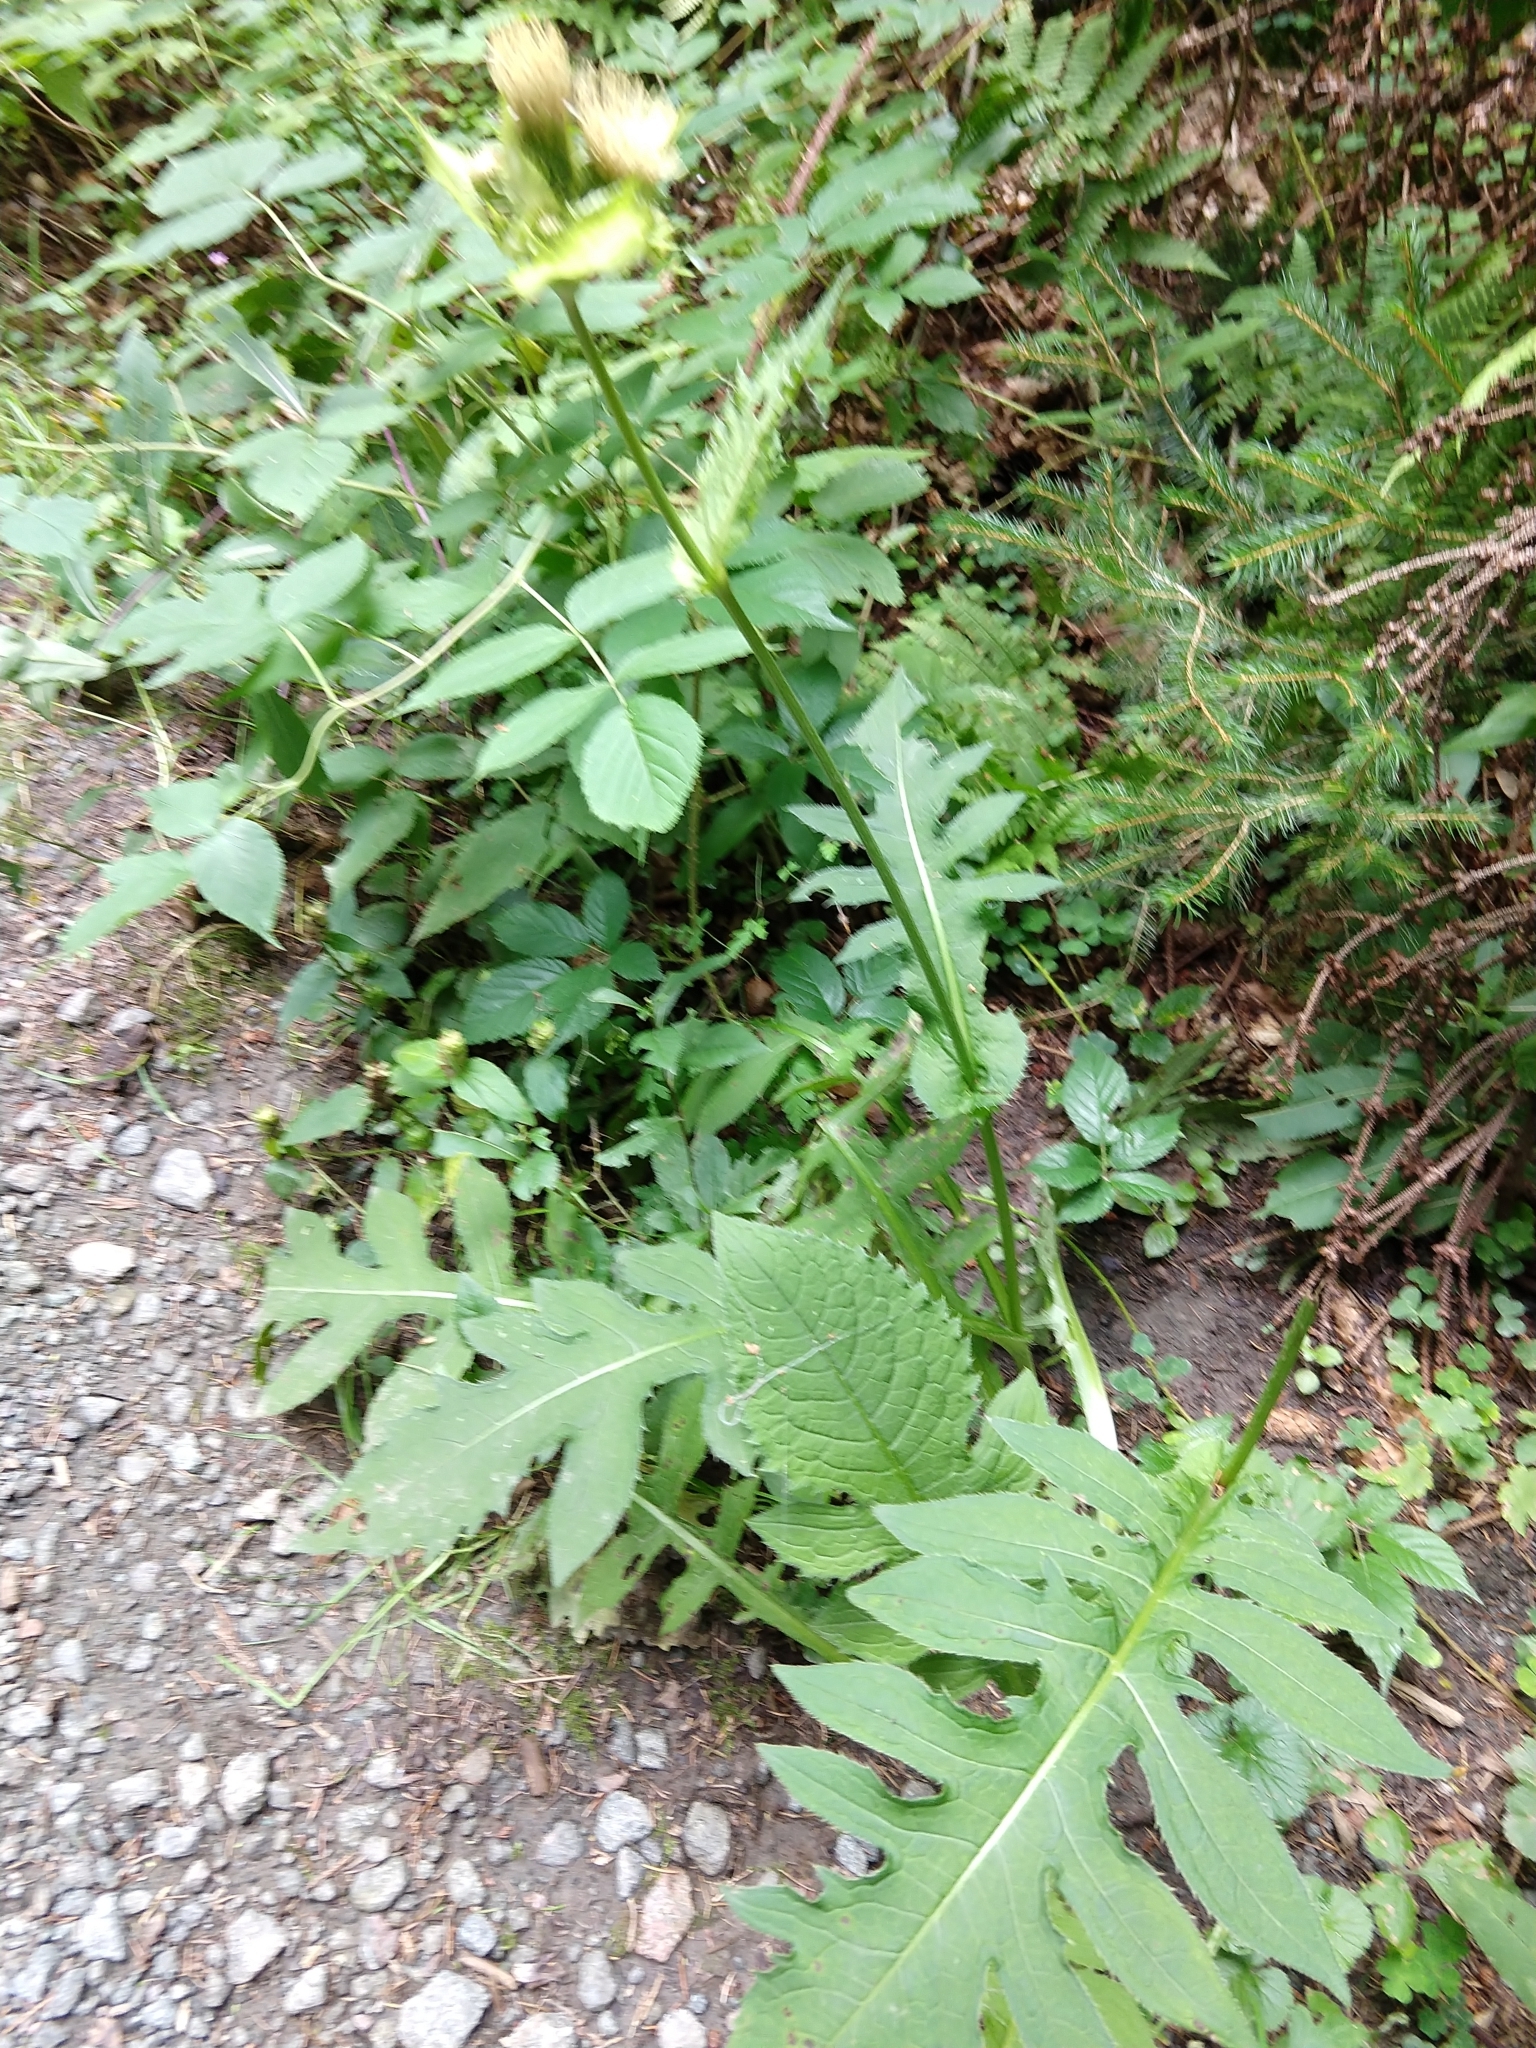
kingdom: Plantae
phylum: Tracheophyta
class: Magnoliopsida
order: Asterales
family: Asteraceae
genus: Cirsium
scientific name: Cirsium oleraceum
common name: Cabbage thistle
